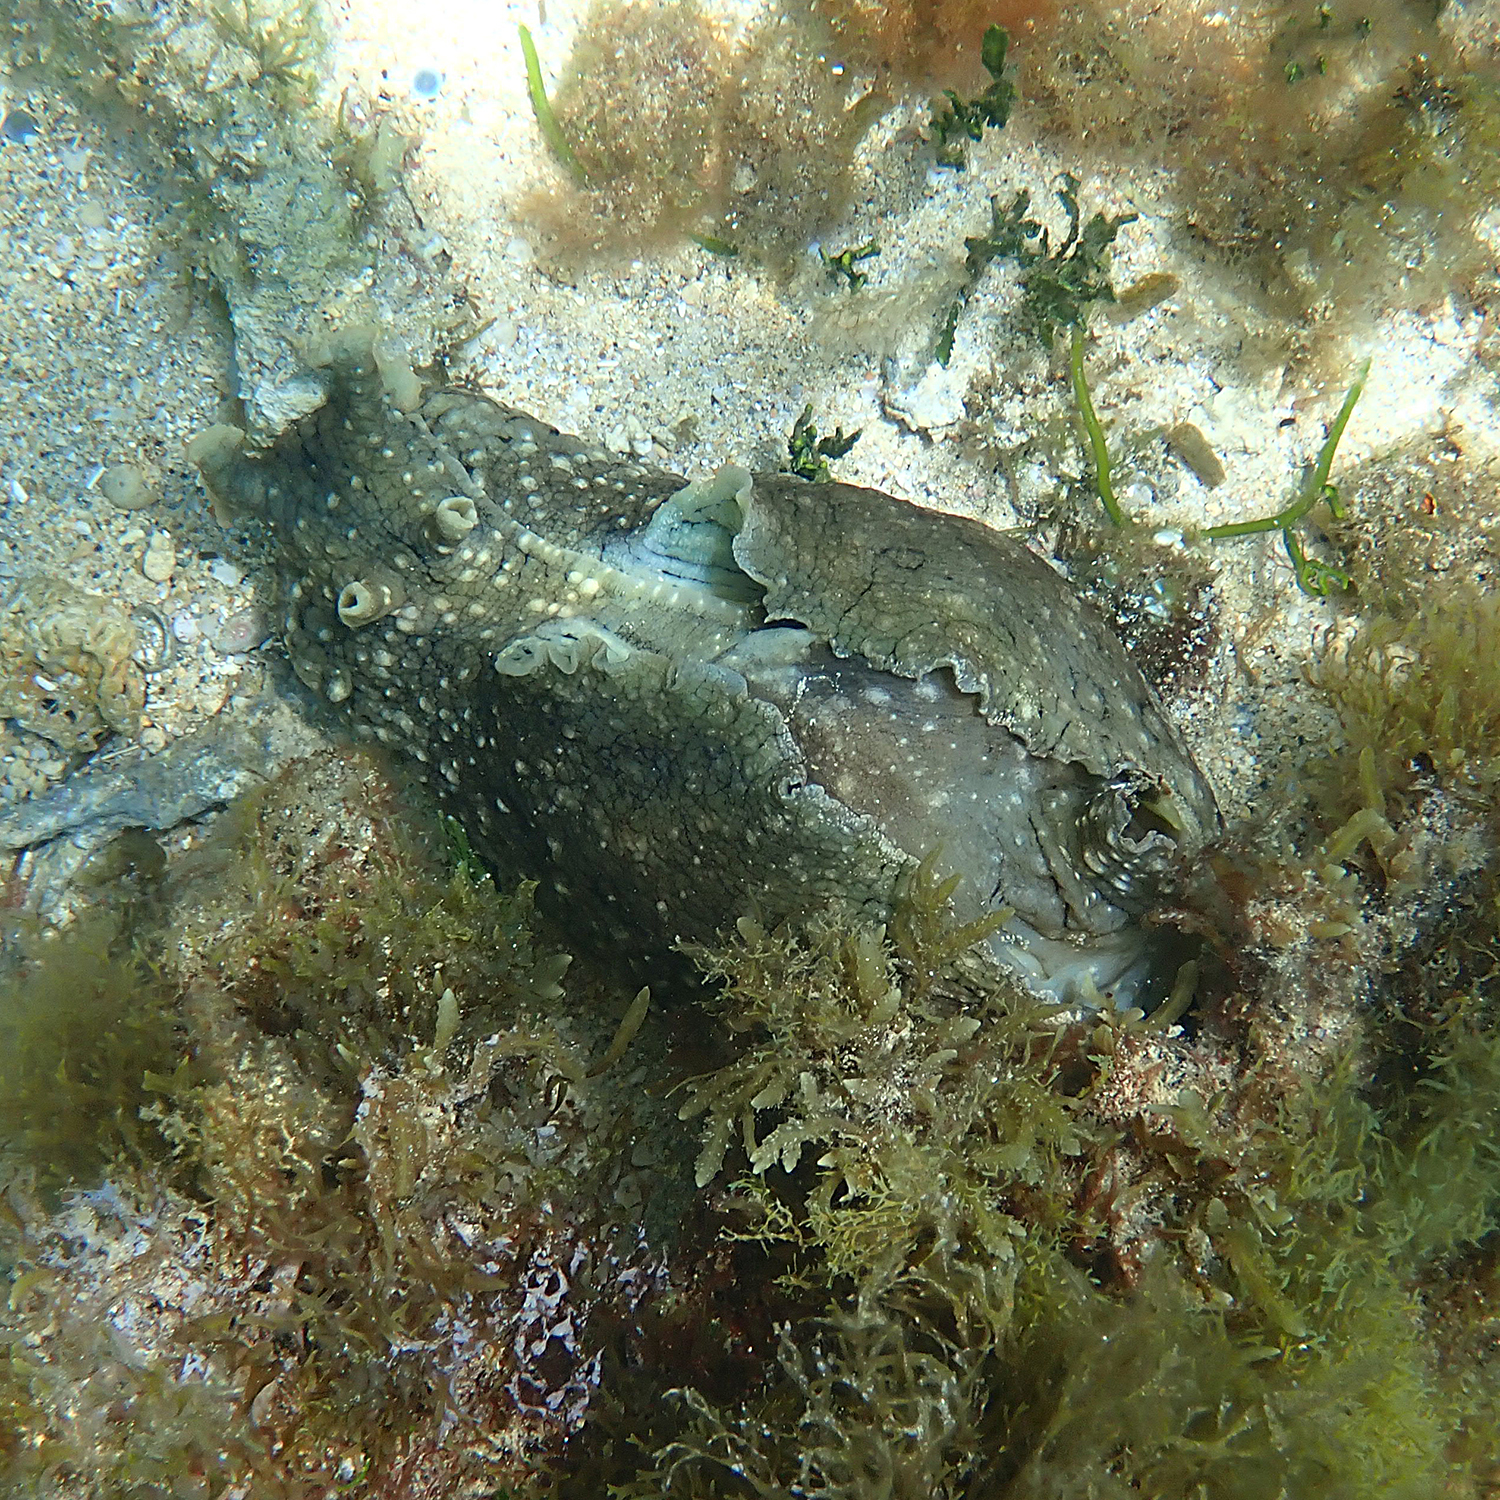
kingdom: Animalia
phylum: Mollusca
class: Gastropoda
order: Aplysiida
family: Aplysiidae
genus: Aplysia
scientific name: Aplysia argus
